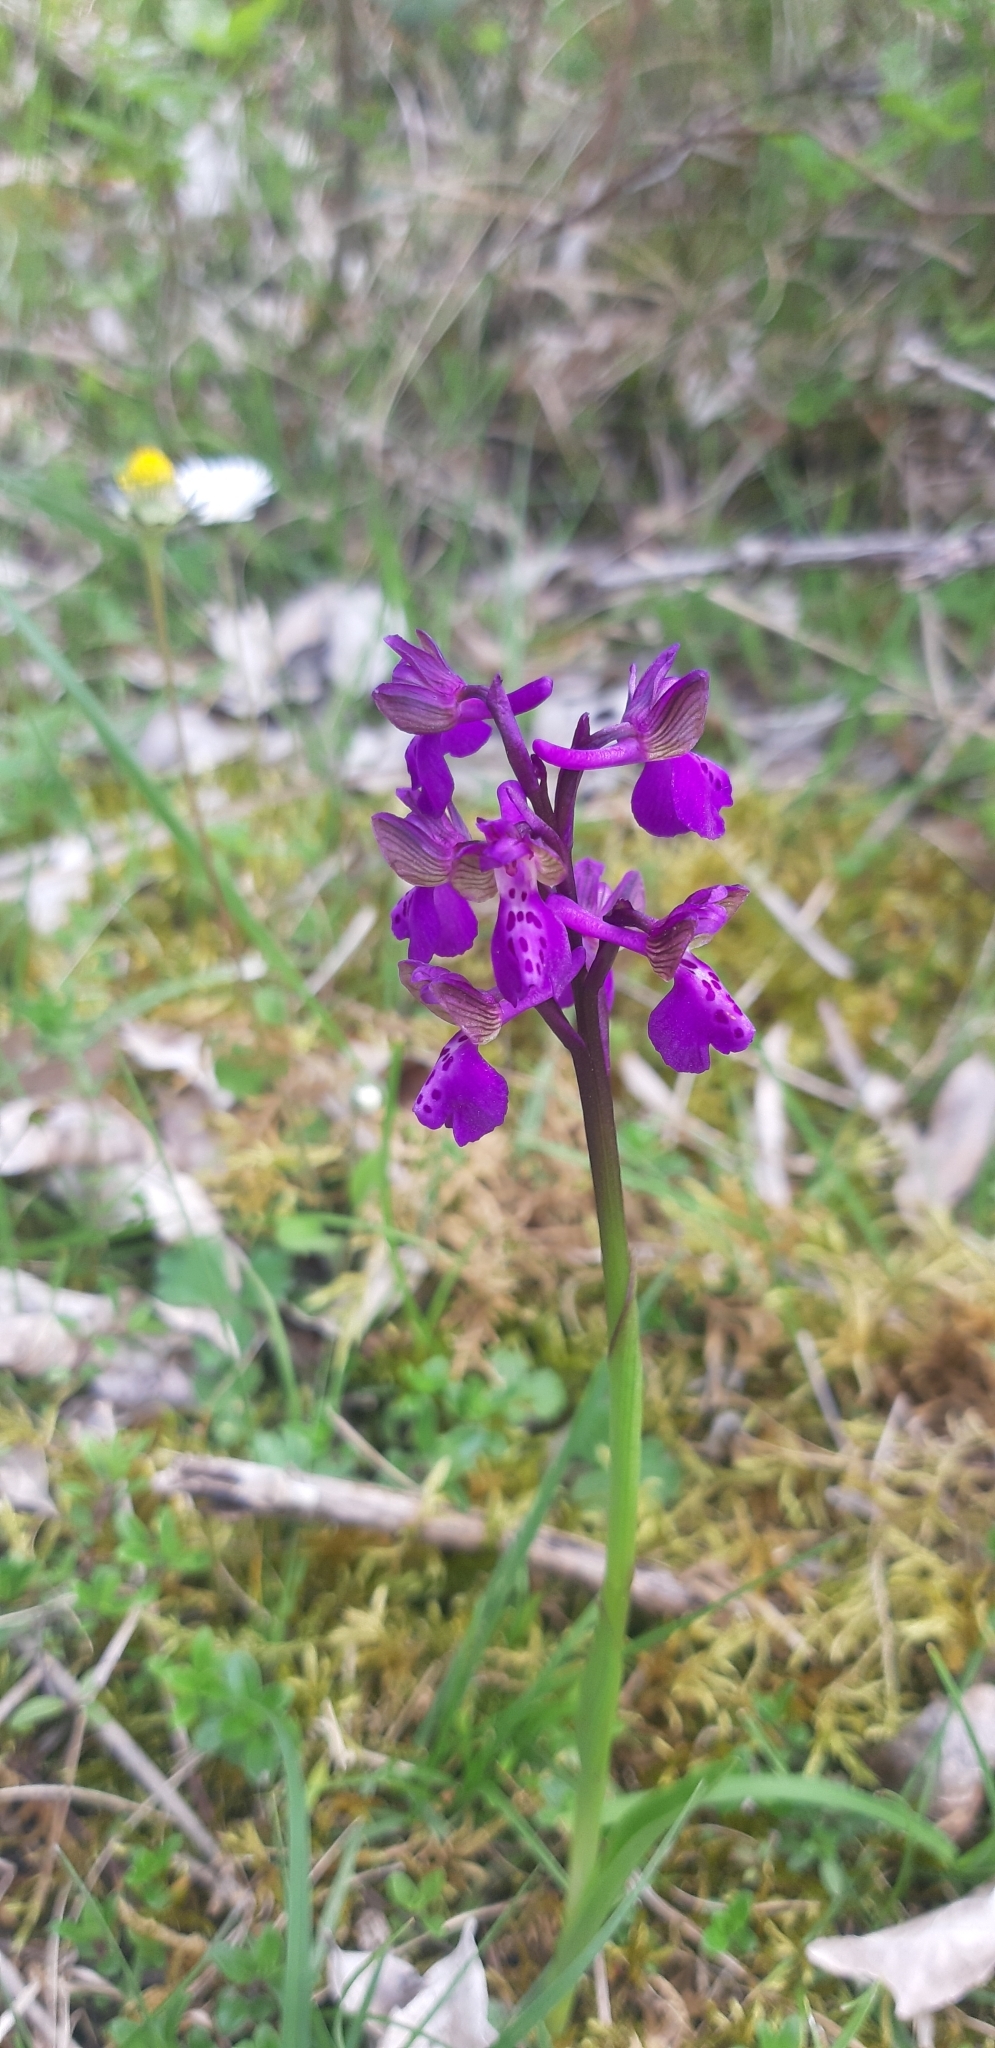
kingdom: Plantae
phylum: Tracheophyta
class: Liliopsida
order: Asparagales
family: Orchidaceae
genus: Anacamptis
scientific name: Anacamptis morio
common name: Green-winged orchid
